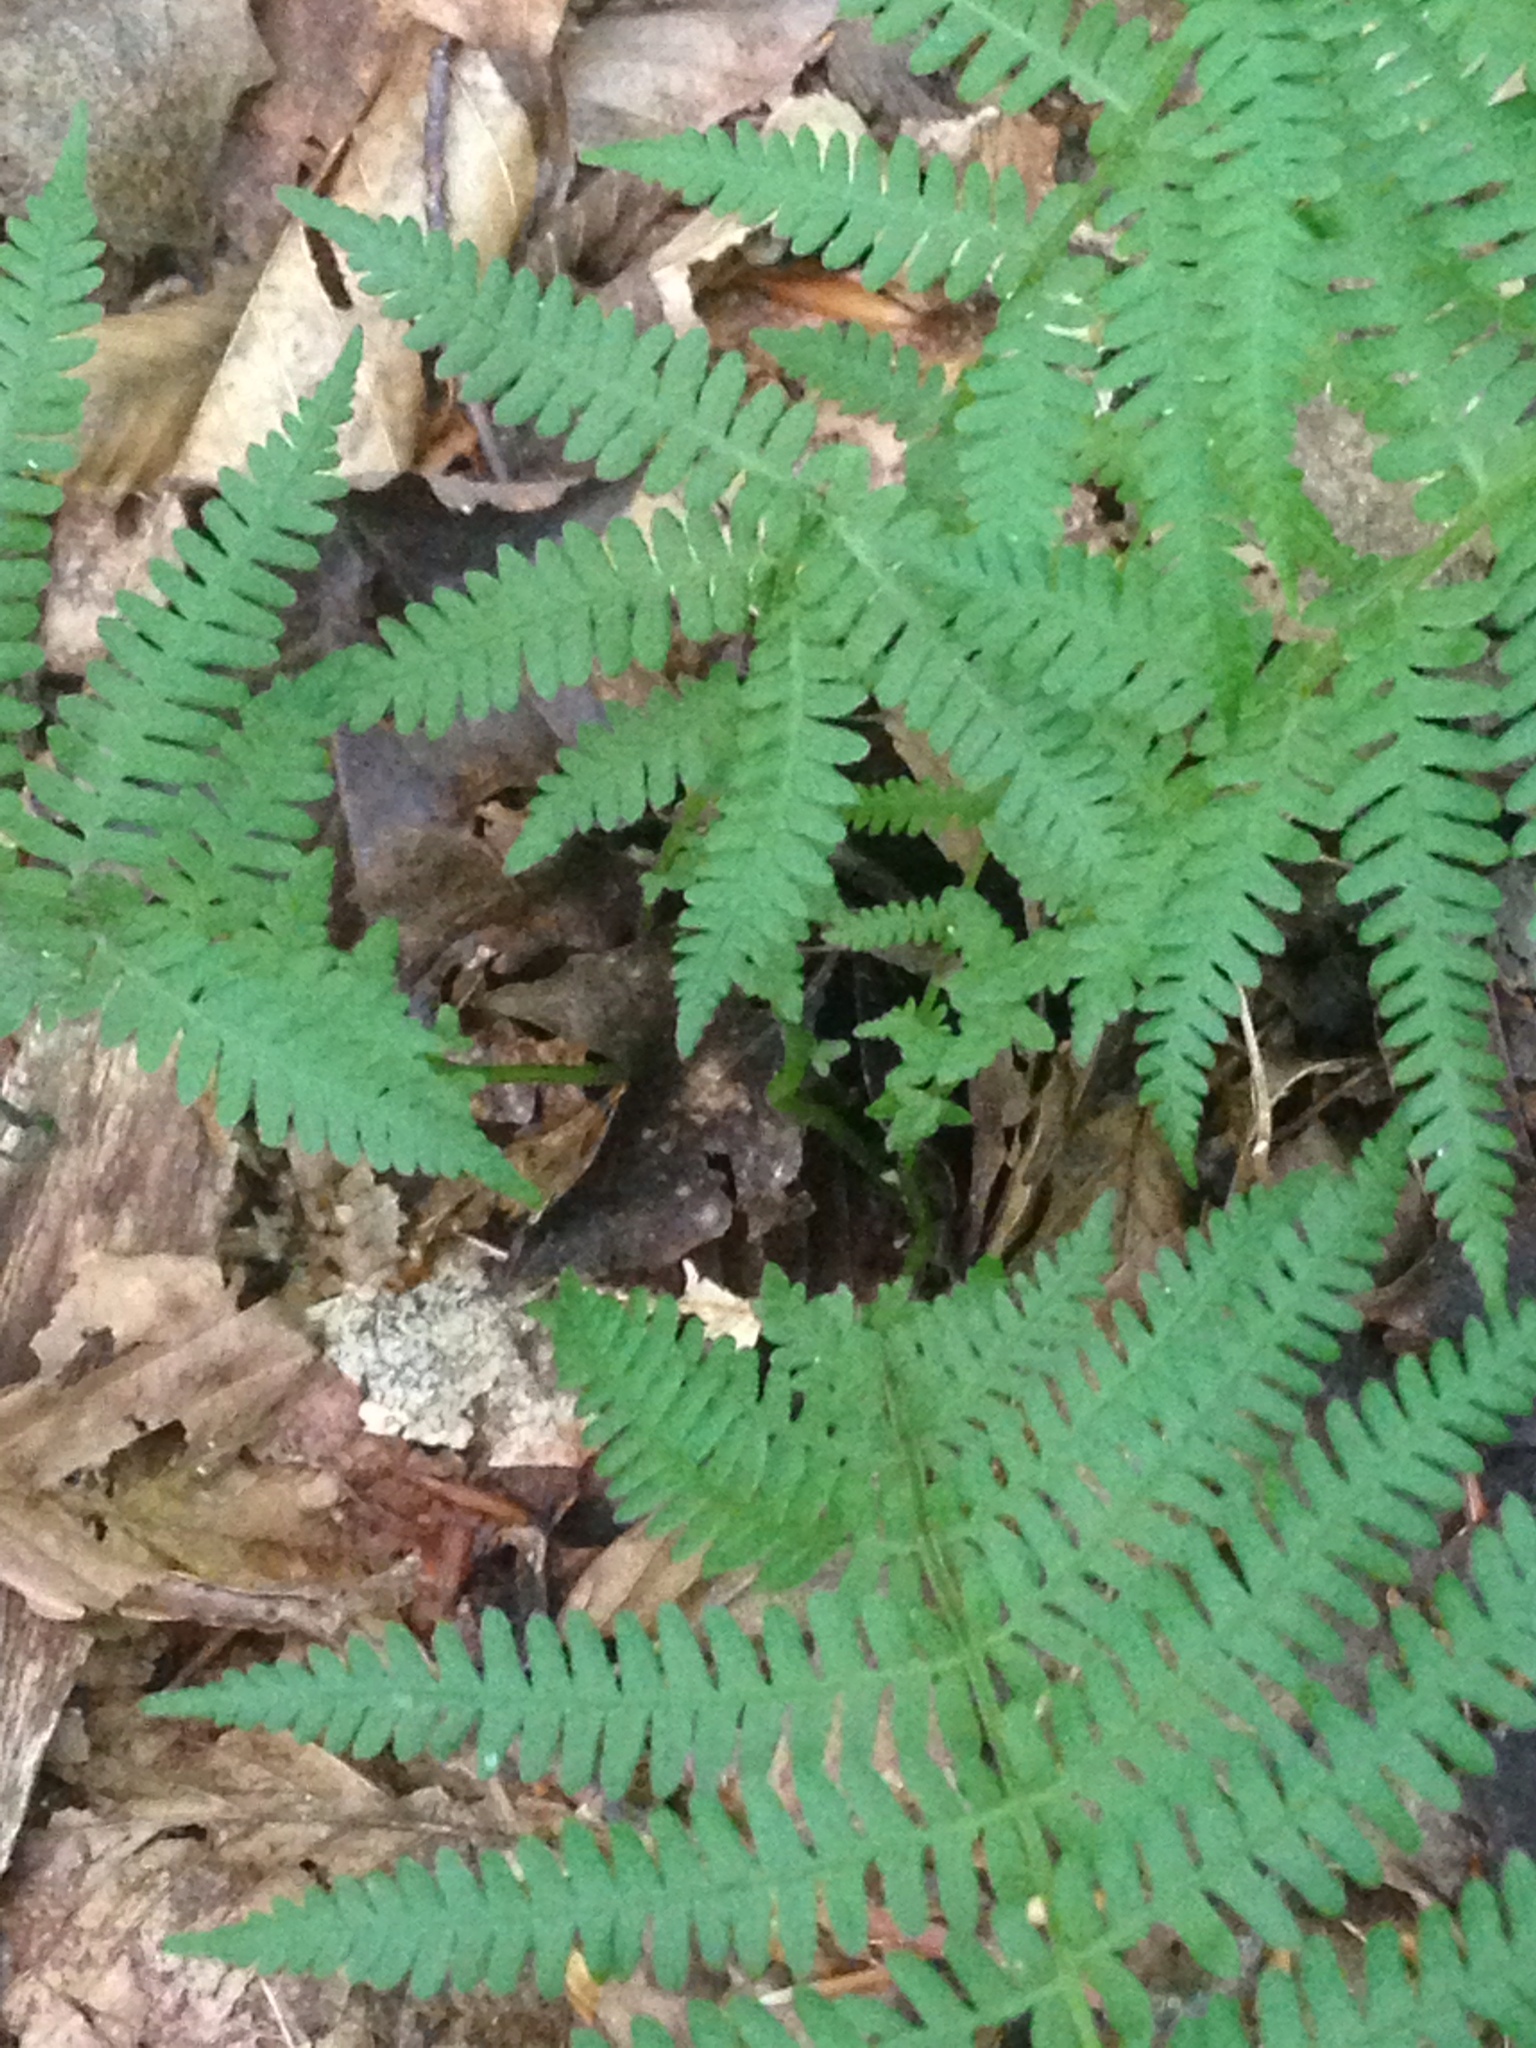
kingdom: Plantae
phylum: Tracheophyta
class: Polypodiopsida
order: Polypodiales
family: Thelypteridaceae
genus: Amauropelta
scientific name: Amauropelta noveboracensis
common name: New york fern
